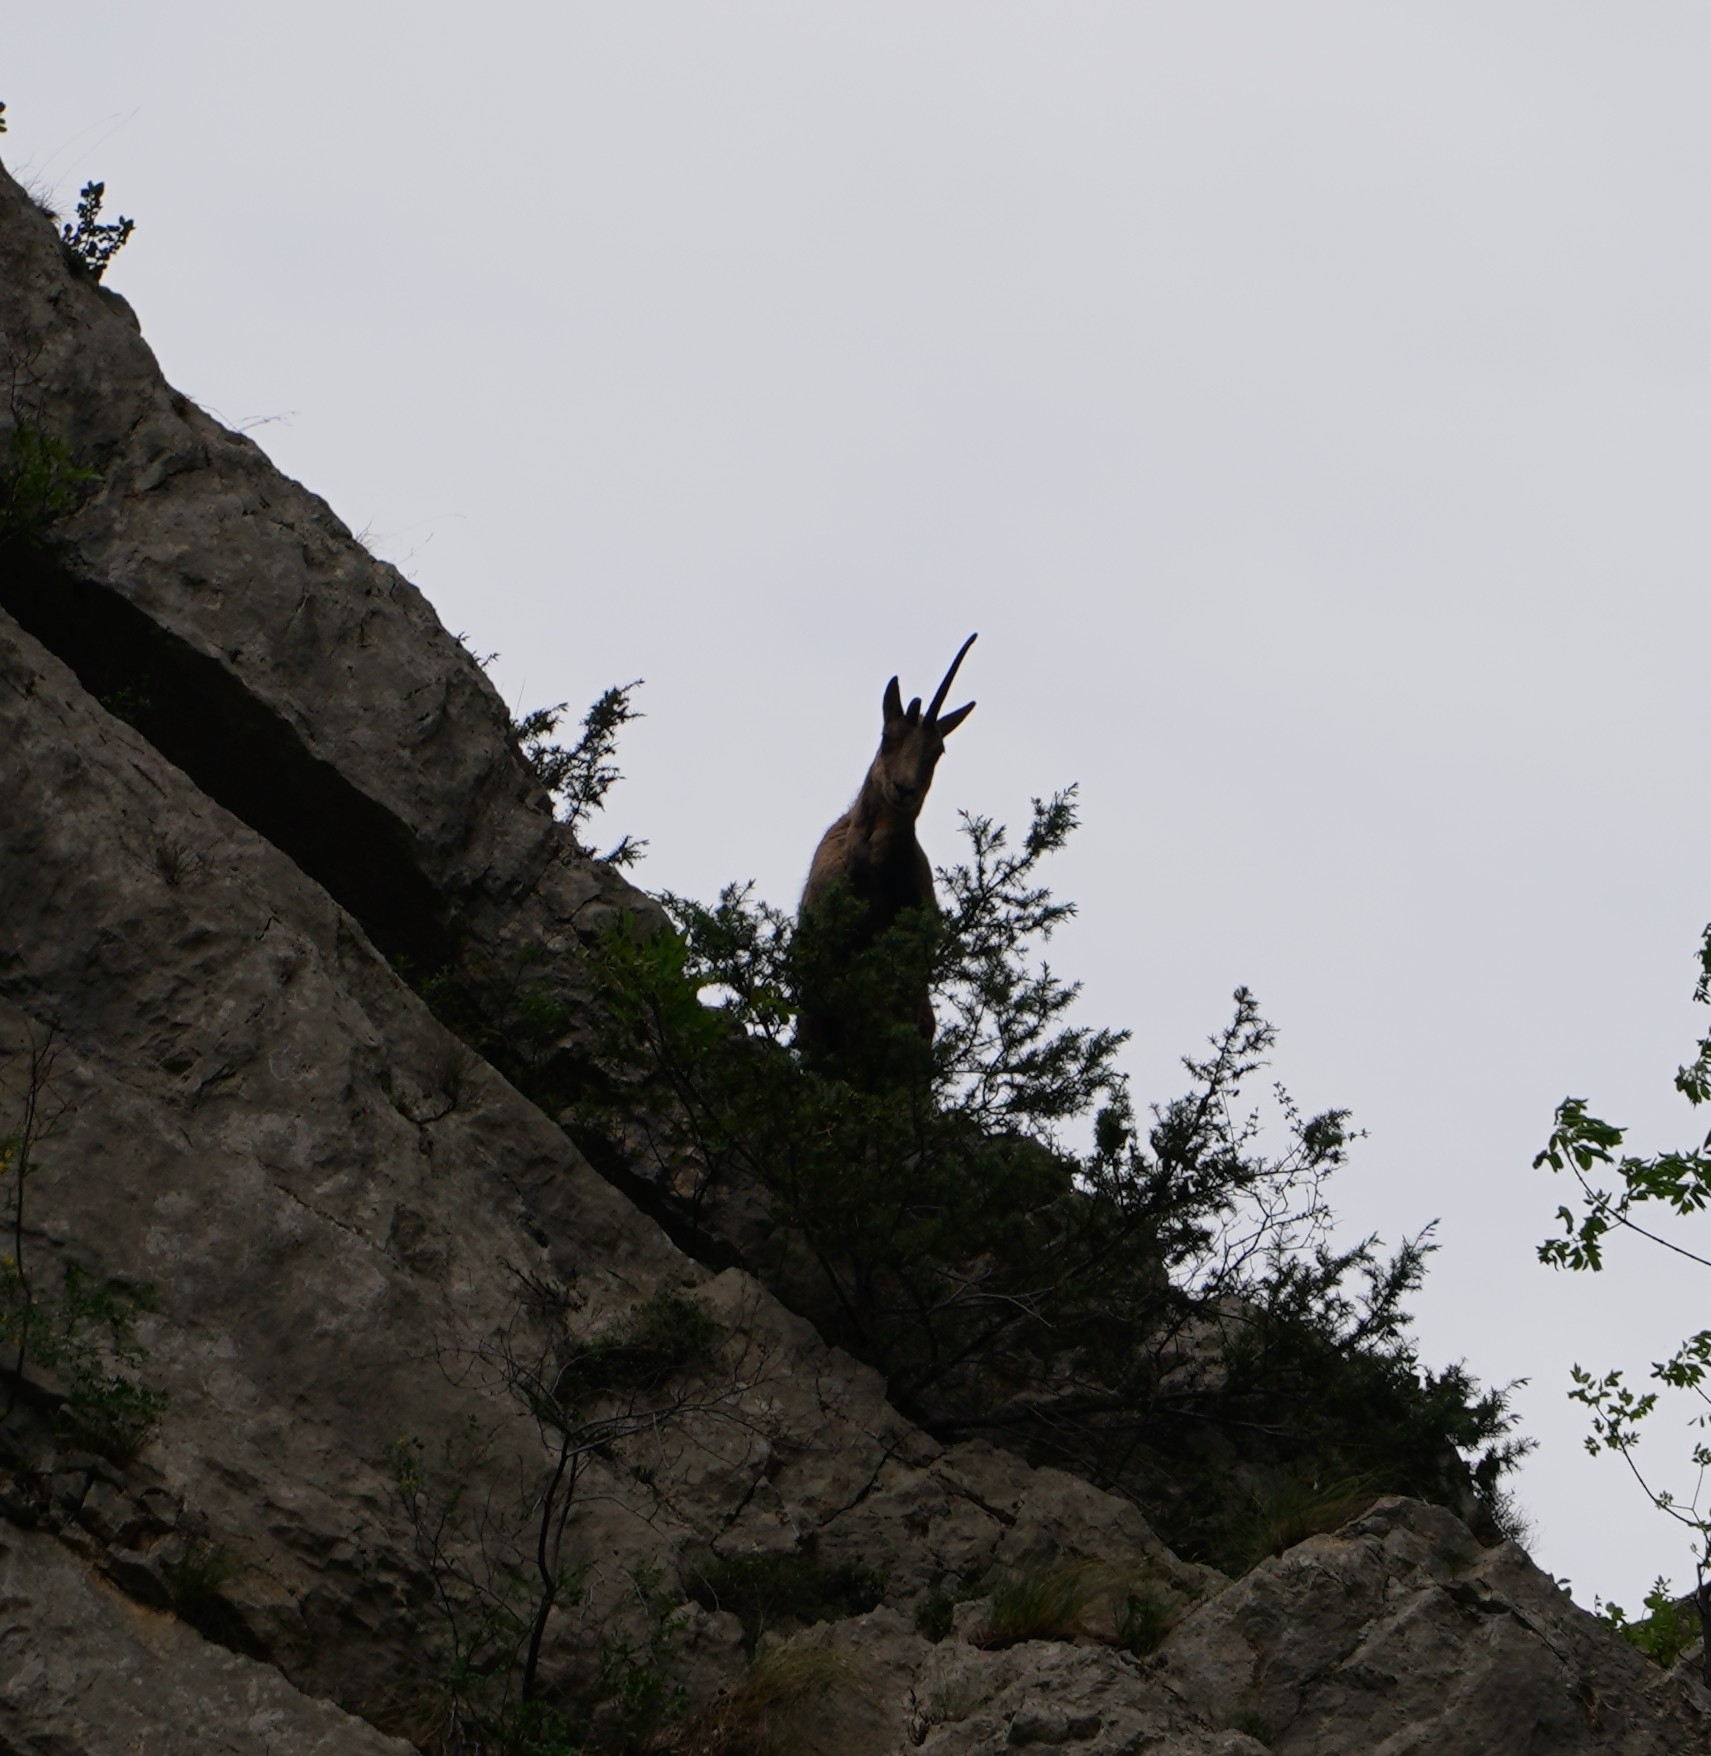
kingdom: Animalia
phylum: Chordata
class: Mammalia
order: Artiodactyla
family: Bovidae
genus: Rupicapra
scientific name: Rupicapra pyrenaica
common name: Pyrenean chamois
